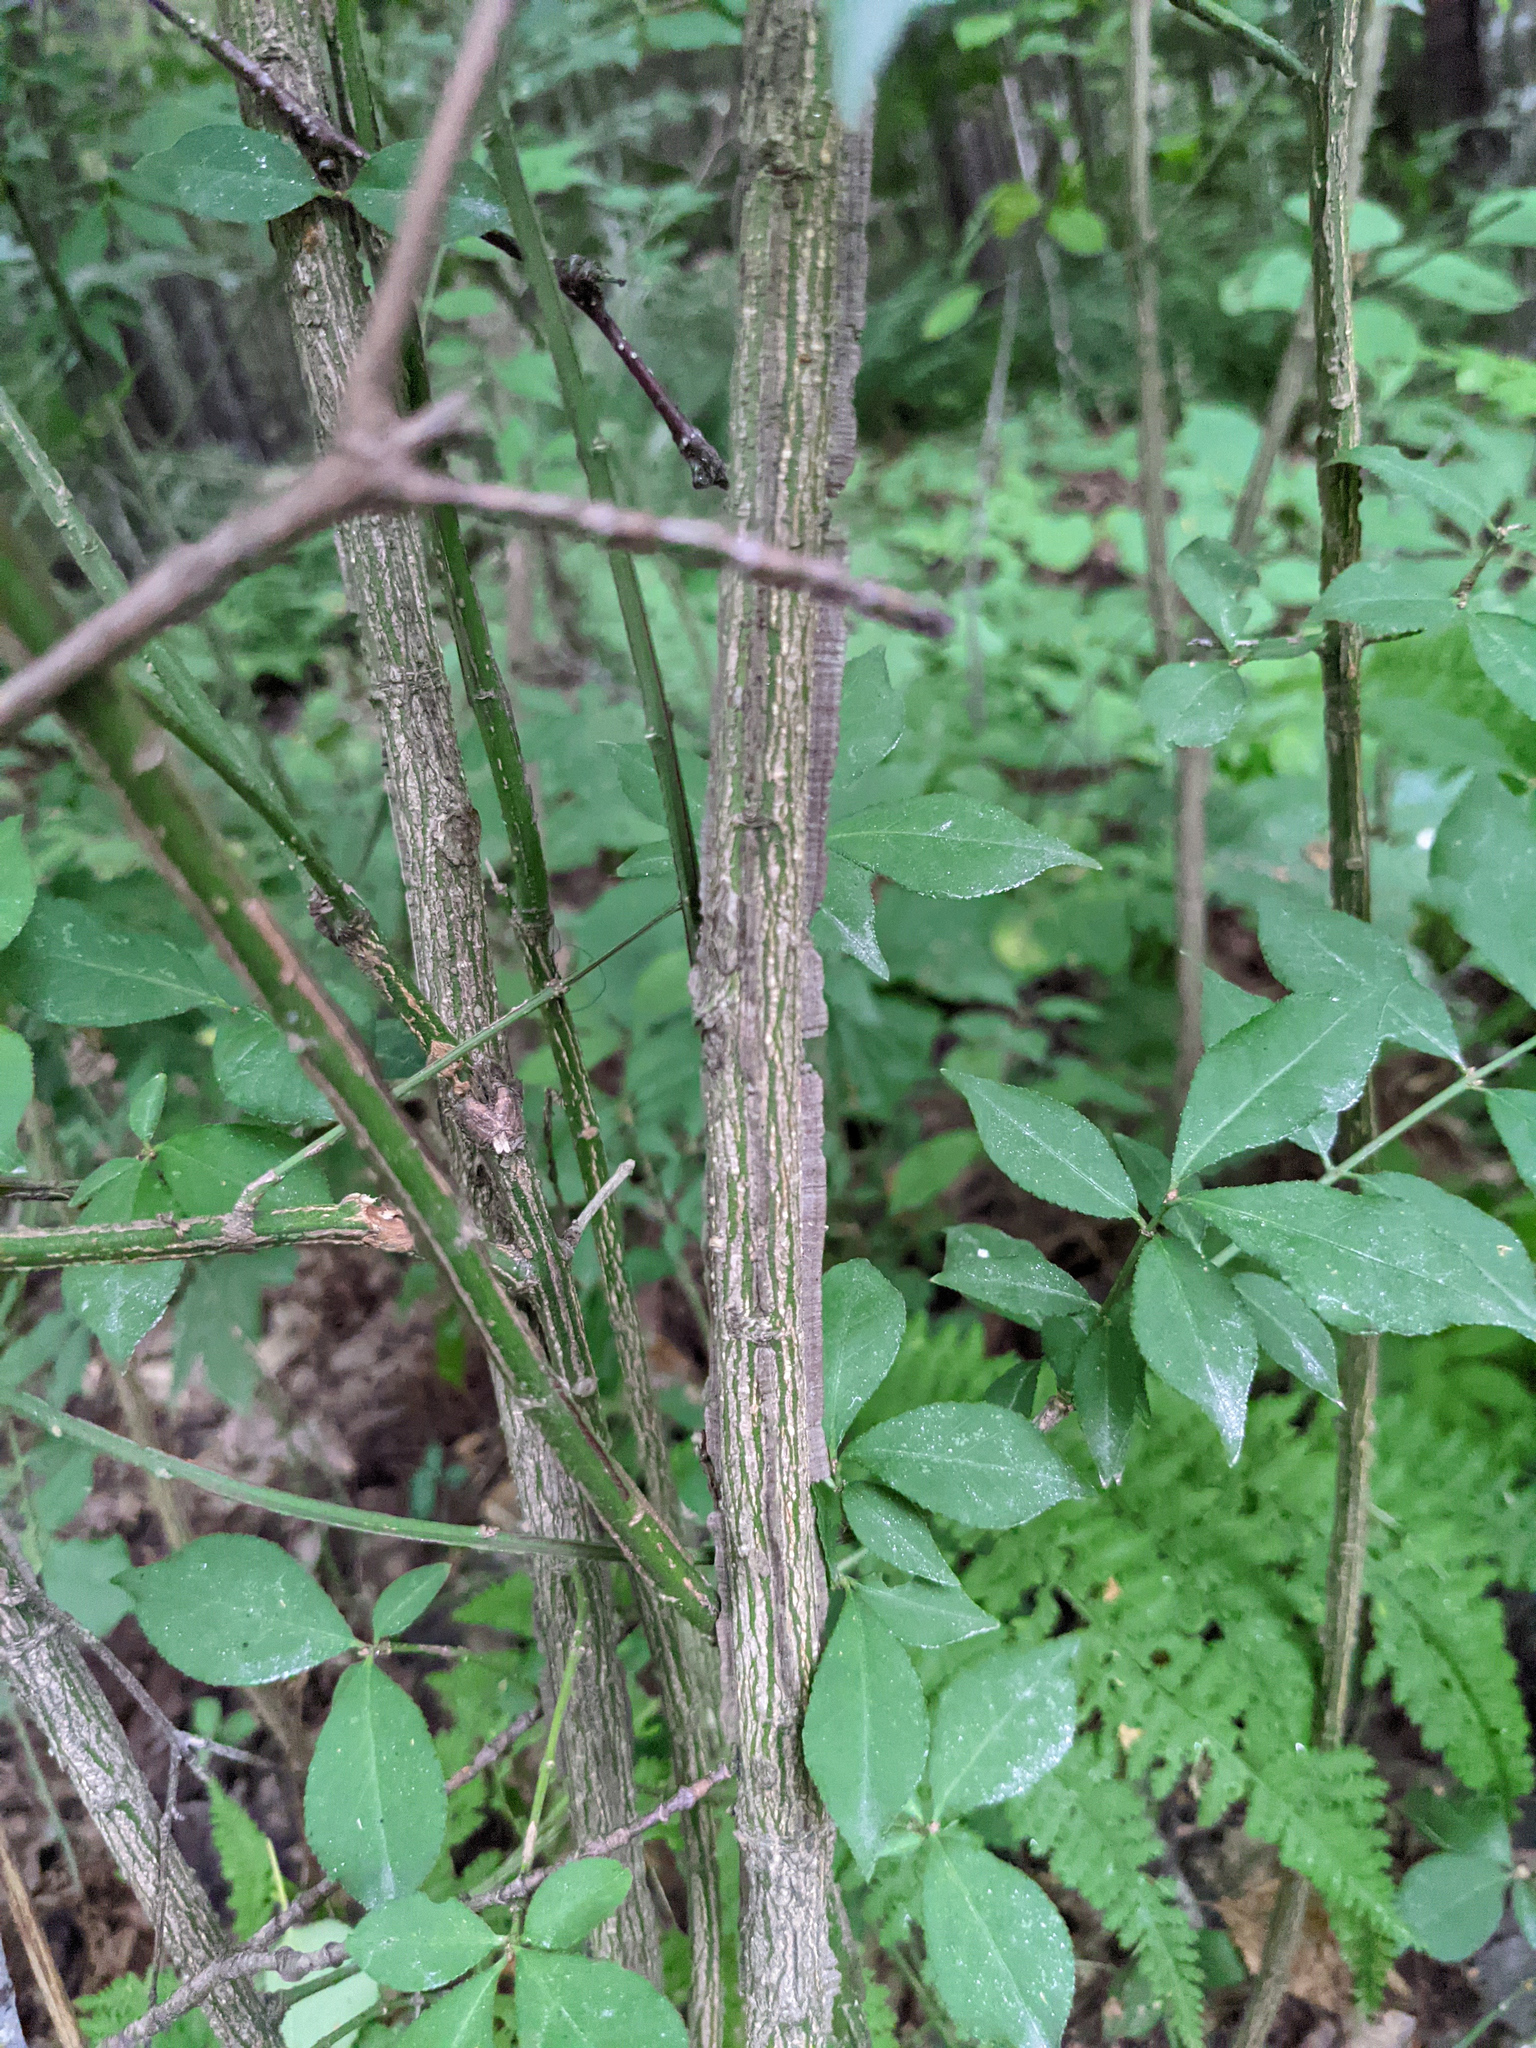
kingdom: Plantae
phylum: Tracheophyta
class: Magnoliopsida
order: Celastrales
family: Celastraceae
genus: Euonymus
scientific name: Euonymus alatus
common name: Winged euonymus
